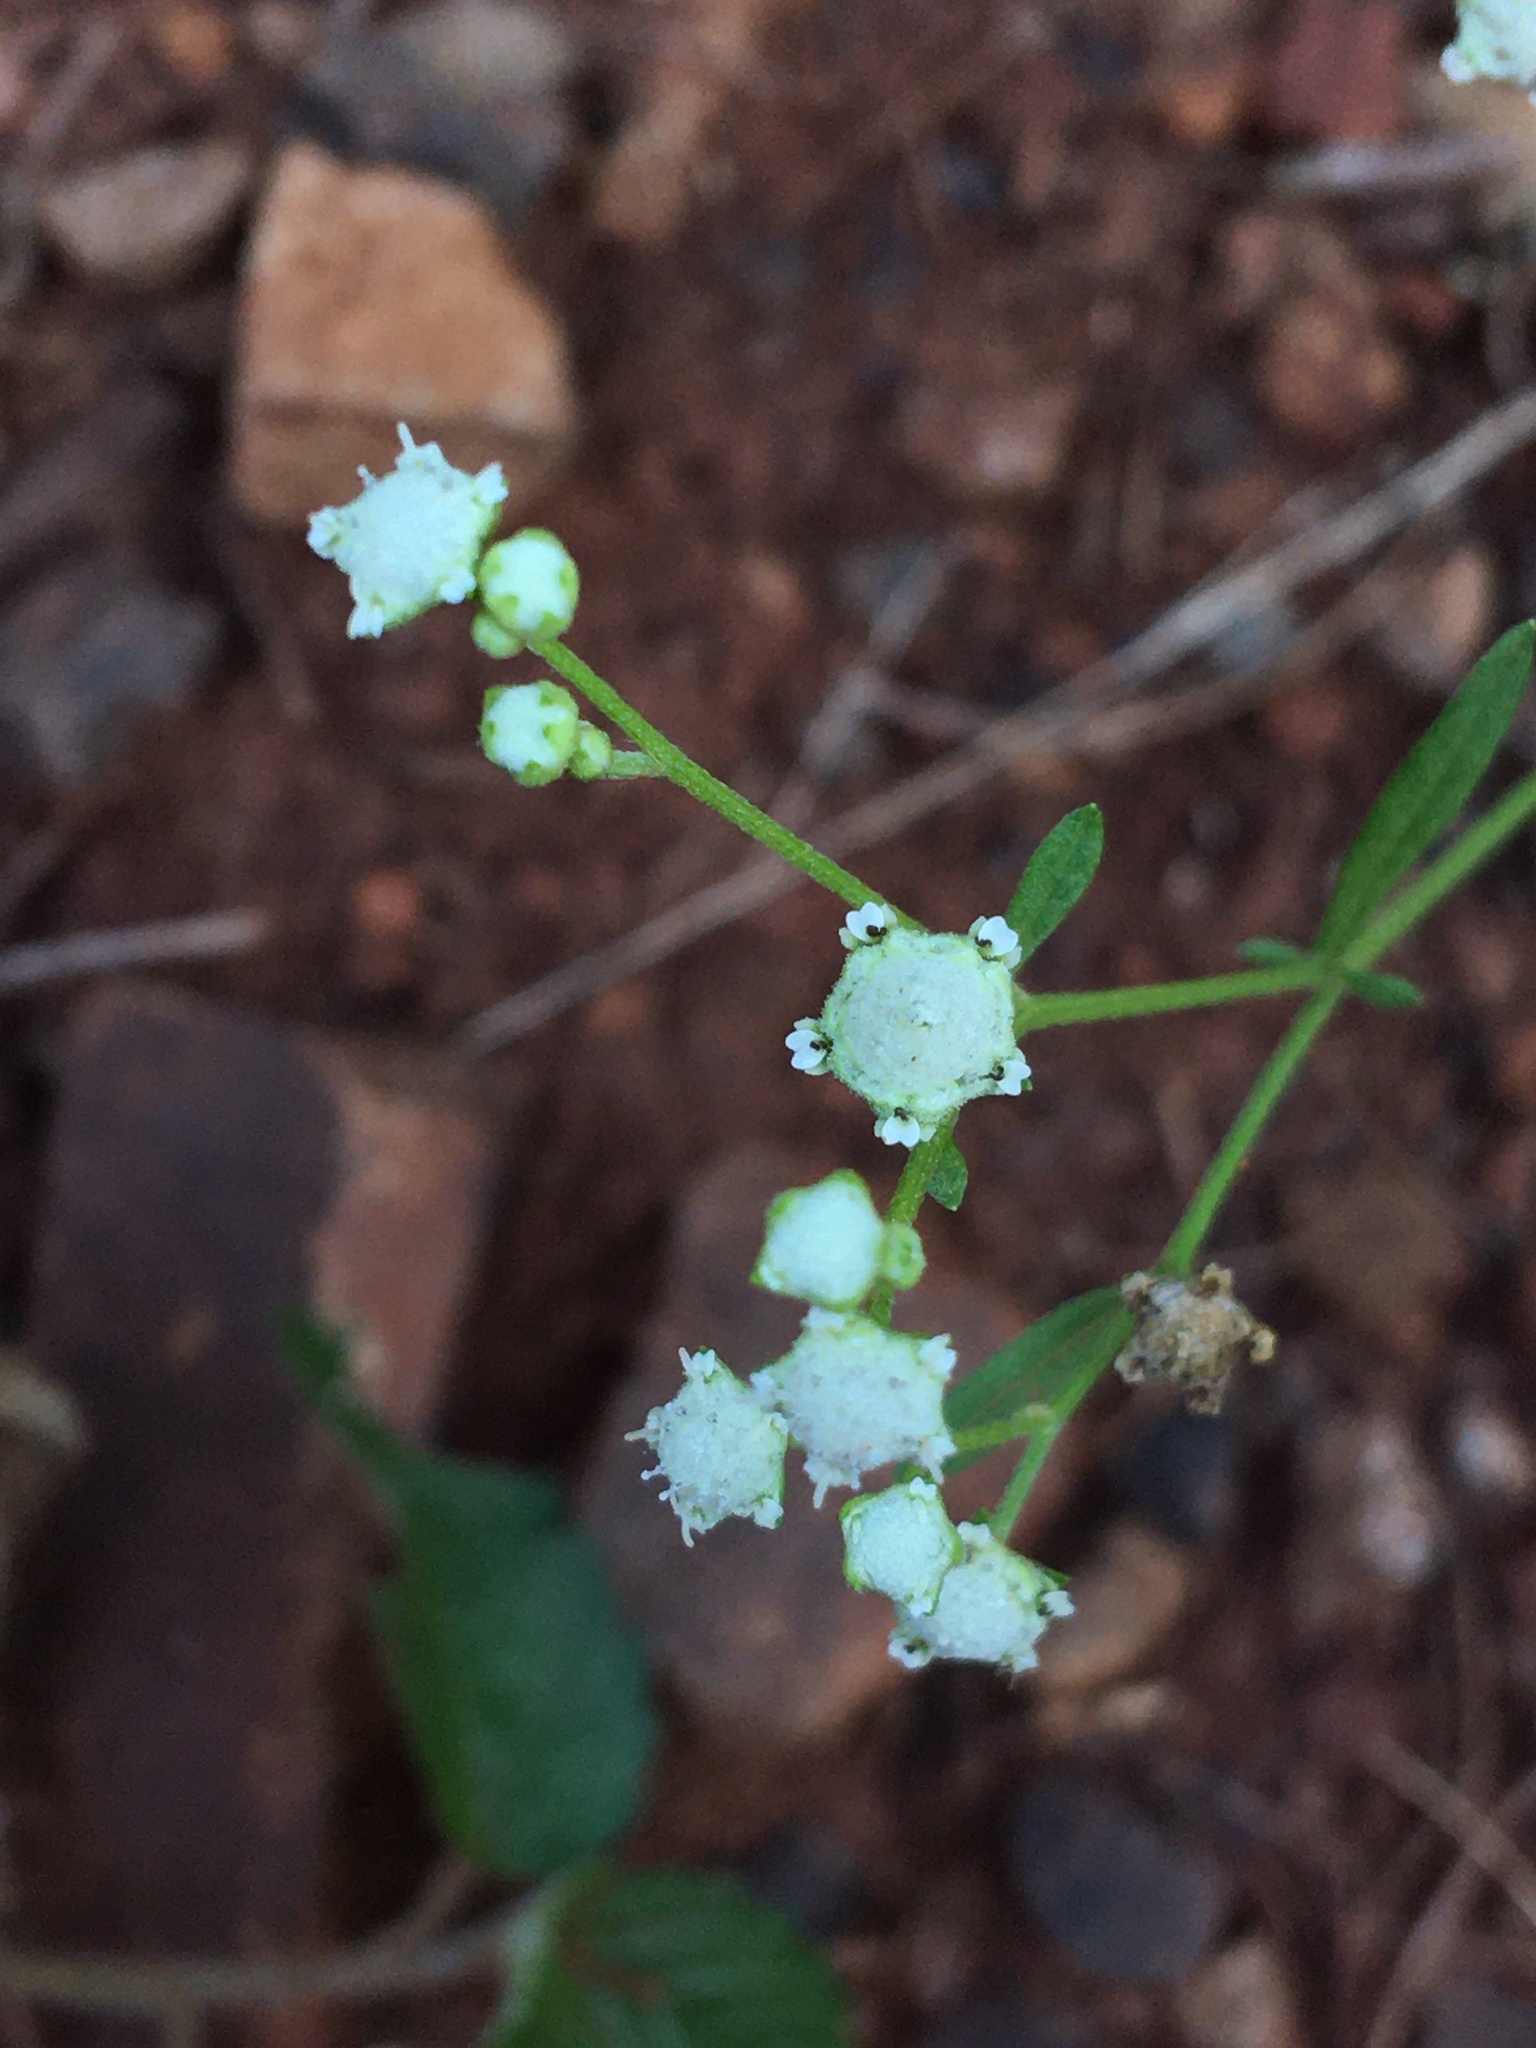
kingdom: Plantae
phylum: Tracheophyta
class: Magnoliopsida
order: Asterales
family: Asteraceae
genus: Parthenium
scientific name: Parthenium hysterophorus
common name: Santa maria feverfew
